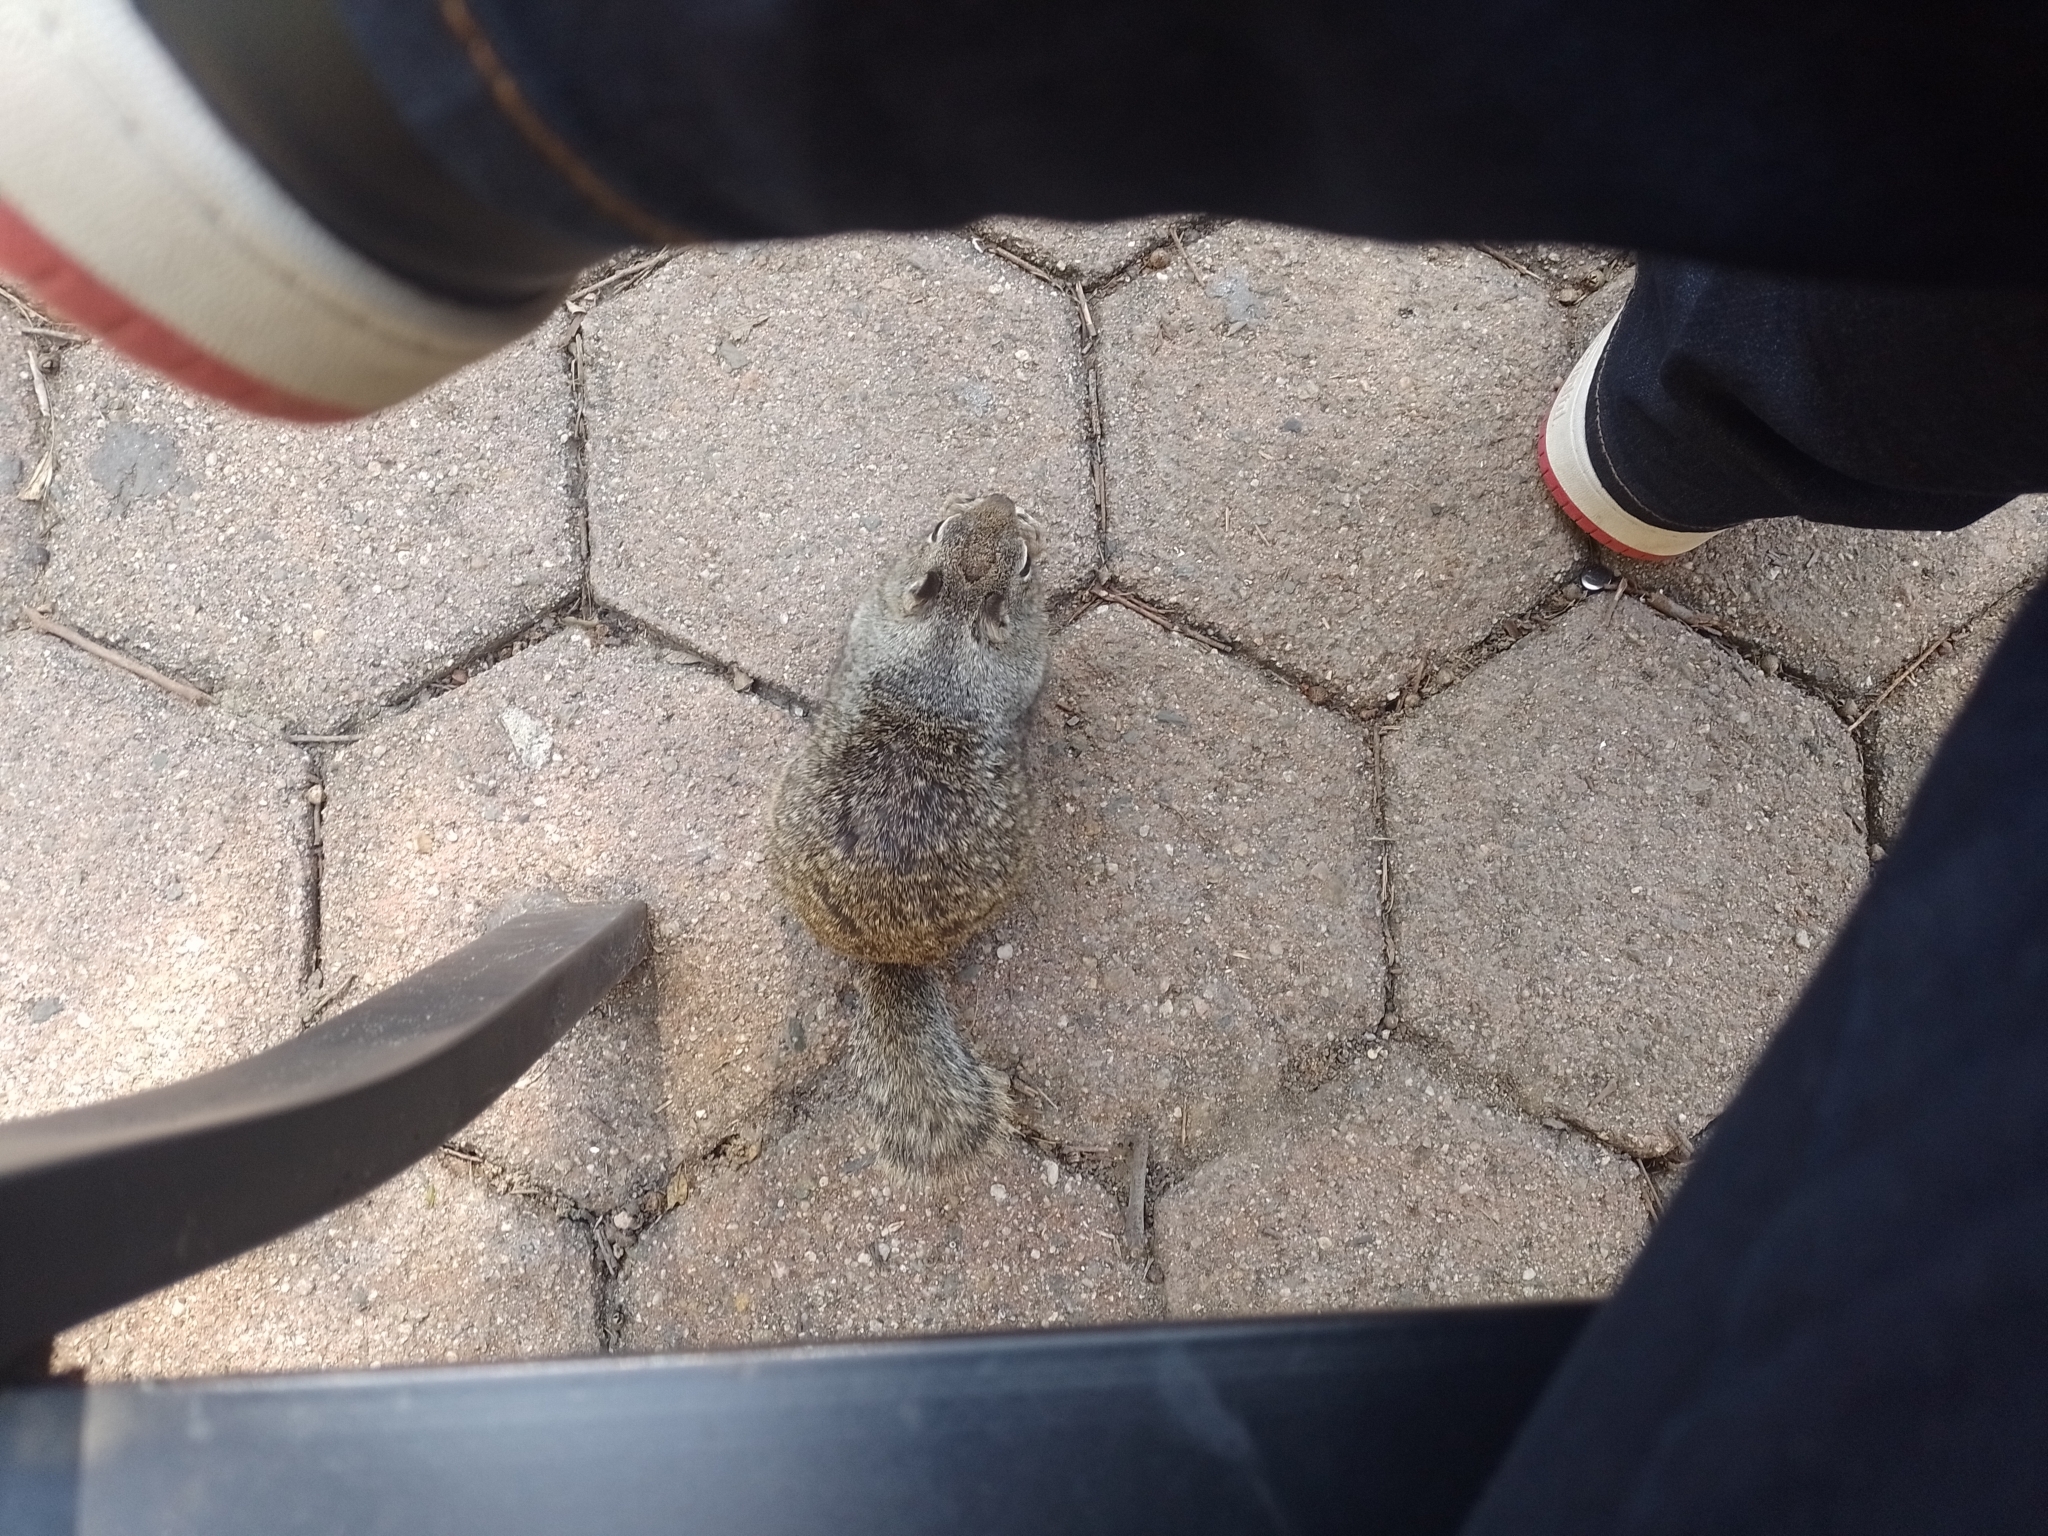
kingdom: Animalia
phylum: Chordata
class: Mammalia
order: Rodentia
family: Sciuridae
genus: Otospermophilus
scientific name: Otospermophilus beecheyi
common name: California ground squirrel
